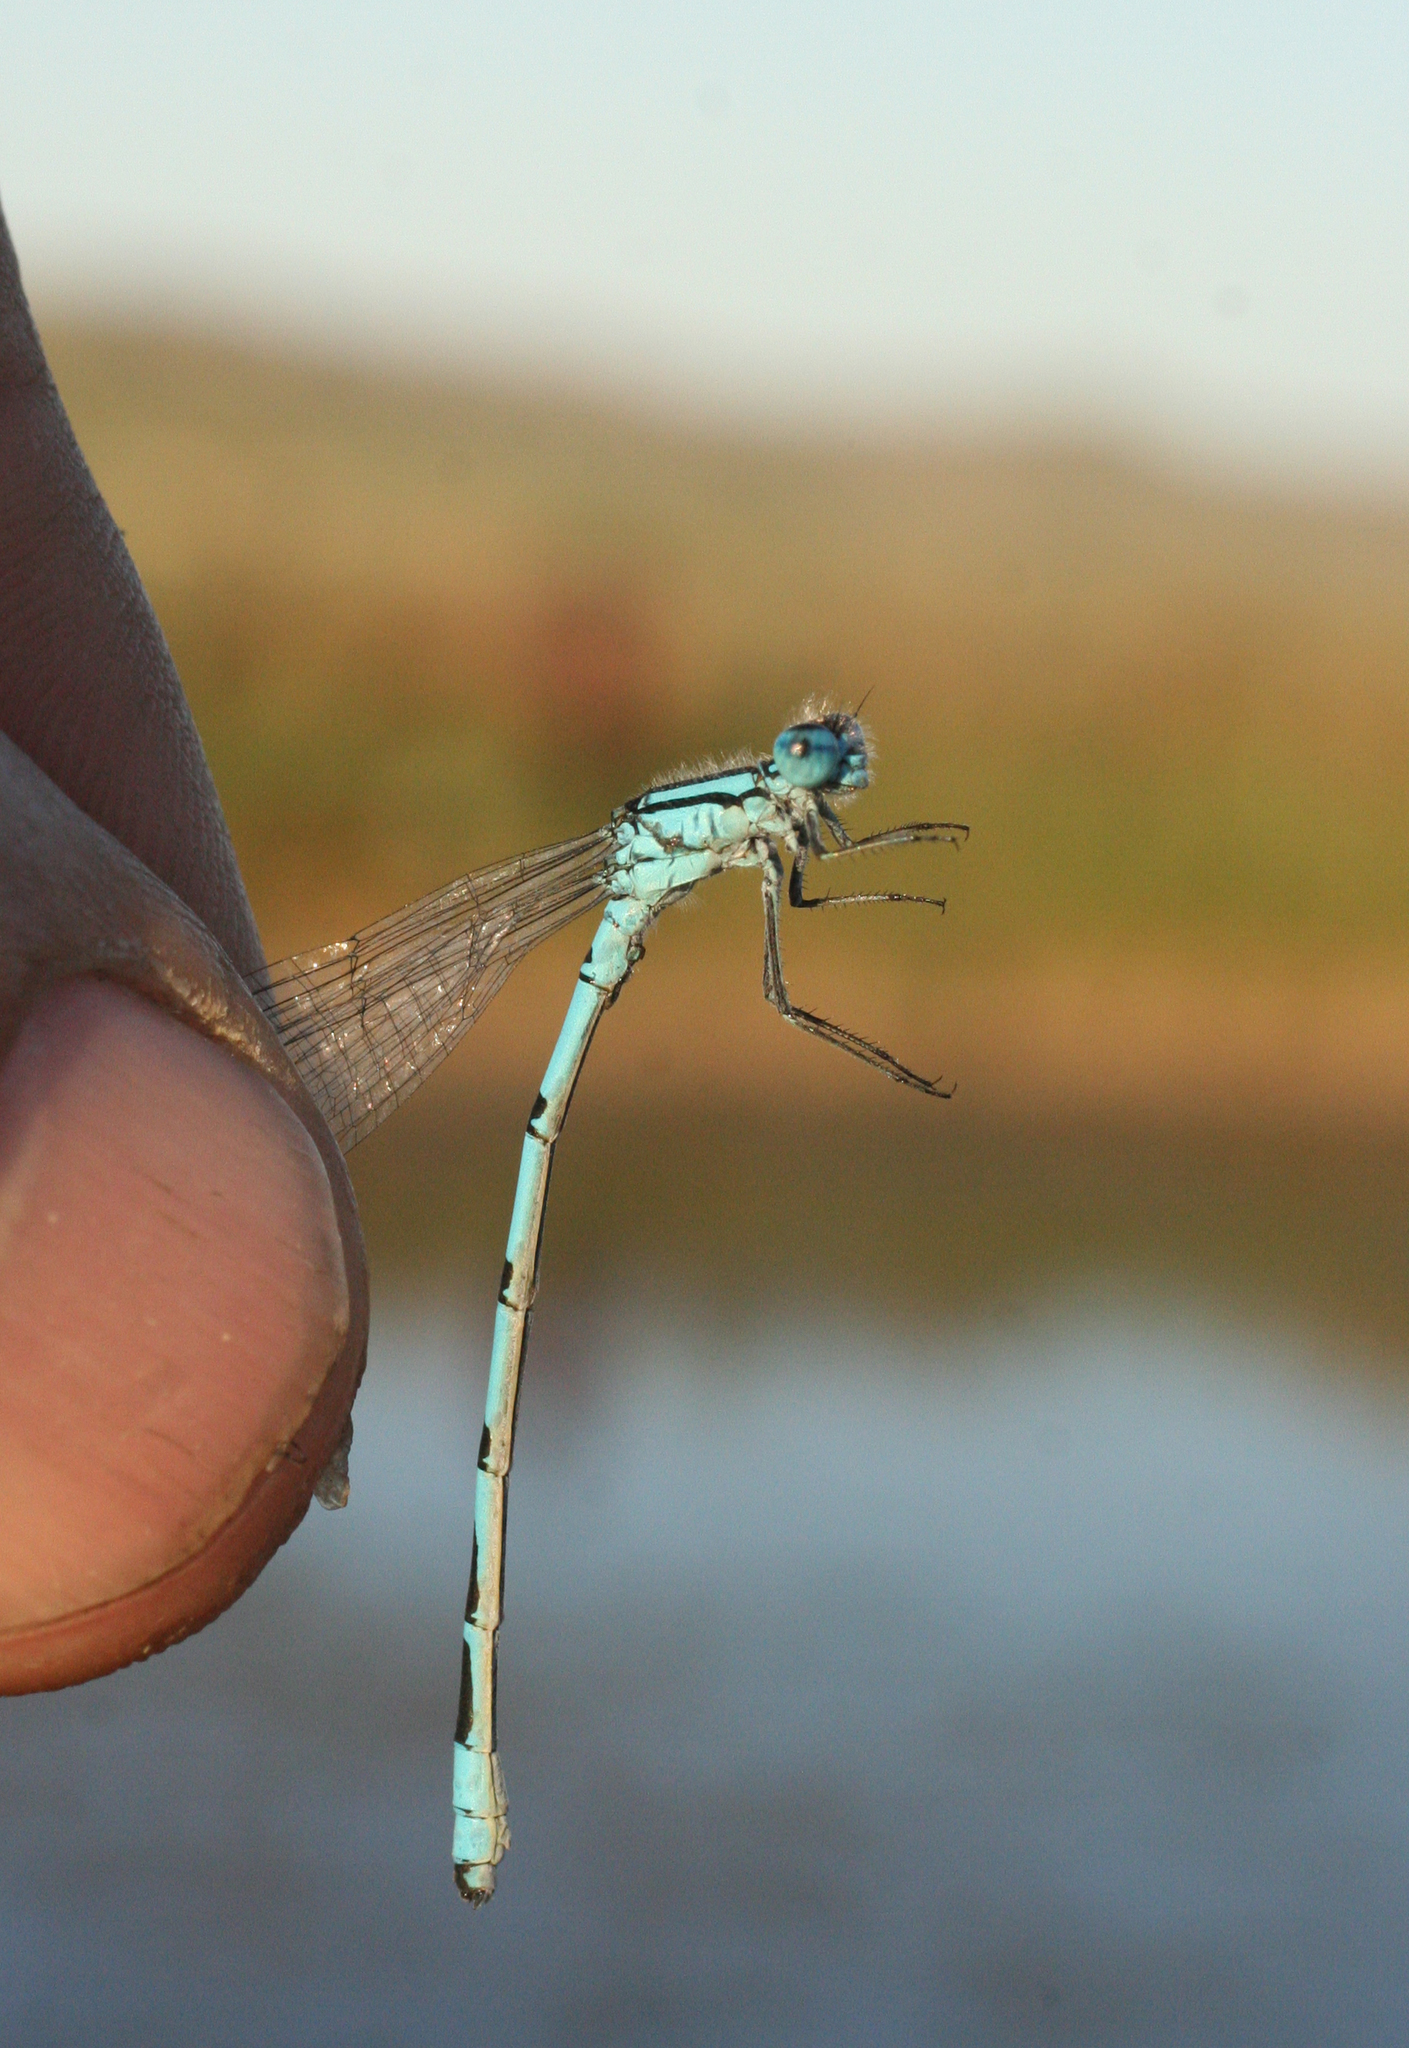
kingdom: Animalia
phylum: Arthropoda
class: Insecta
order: Odonata
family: Coenagrionidae
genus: Enallagma
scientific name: Enallagma cyathigerum
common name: Common blue damselfly
